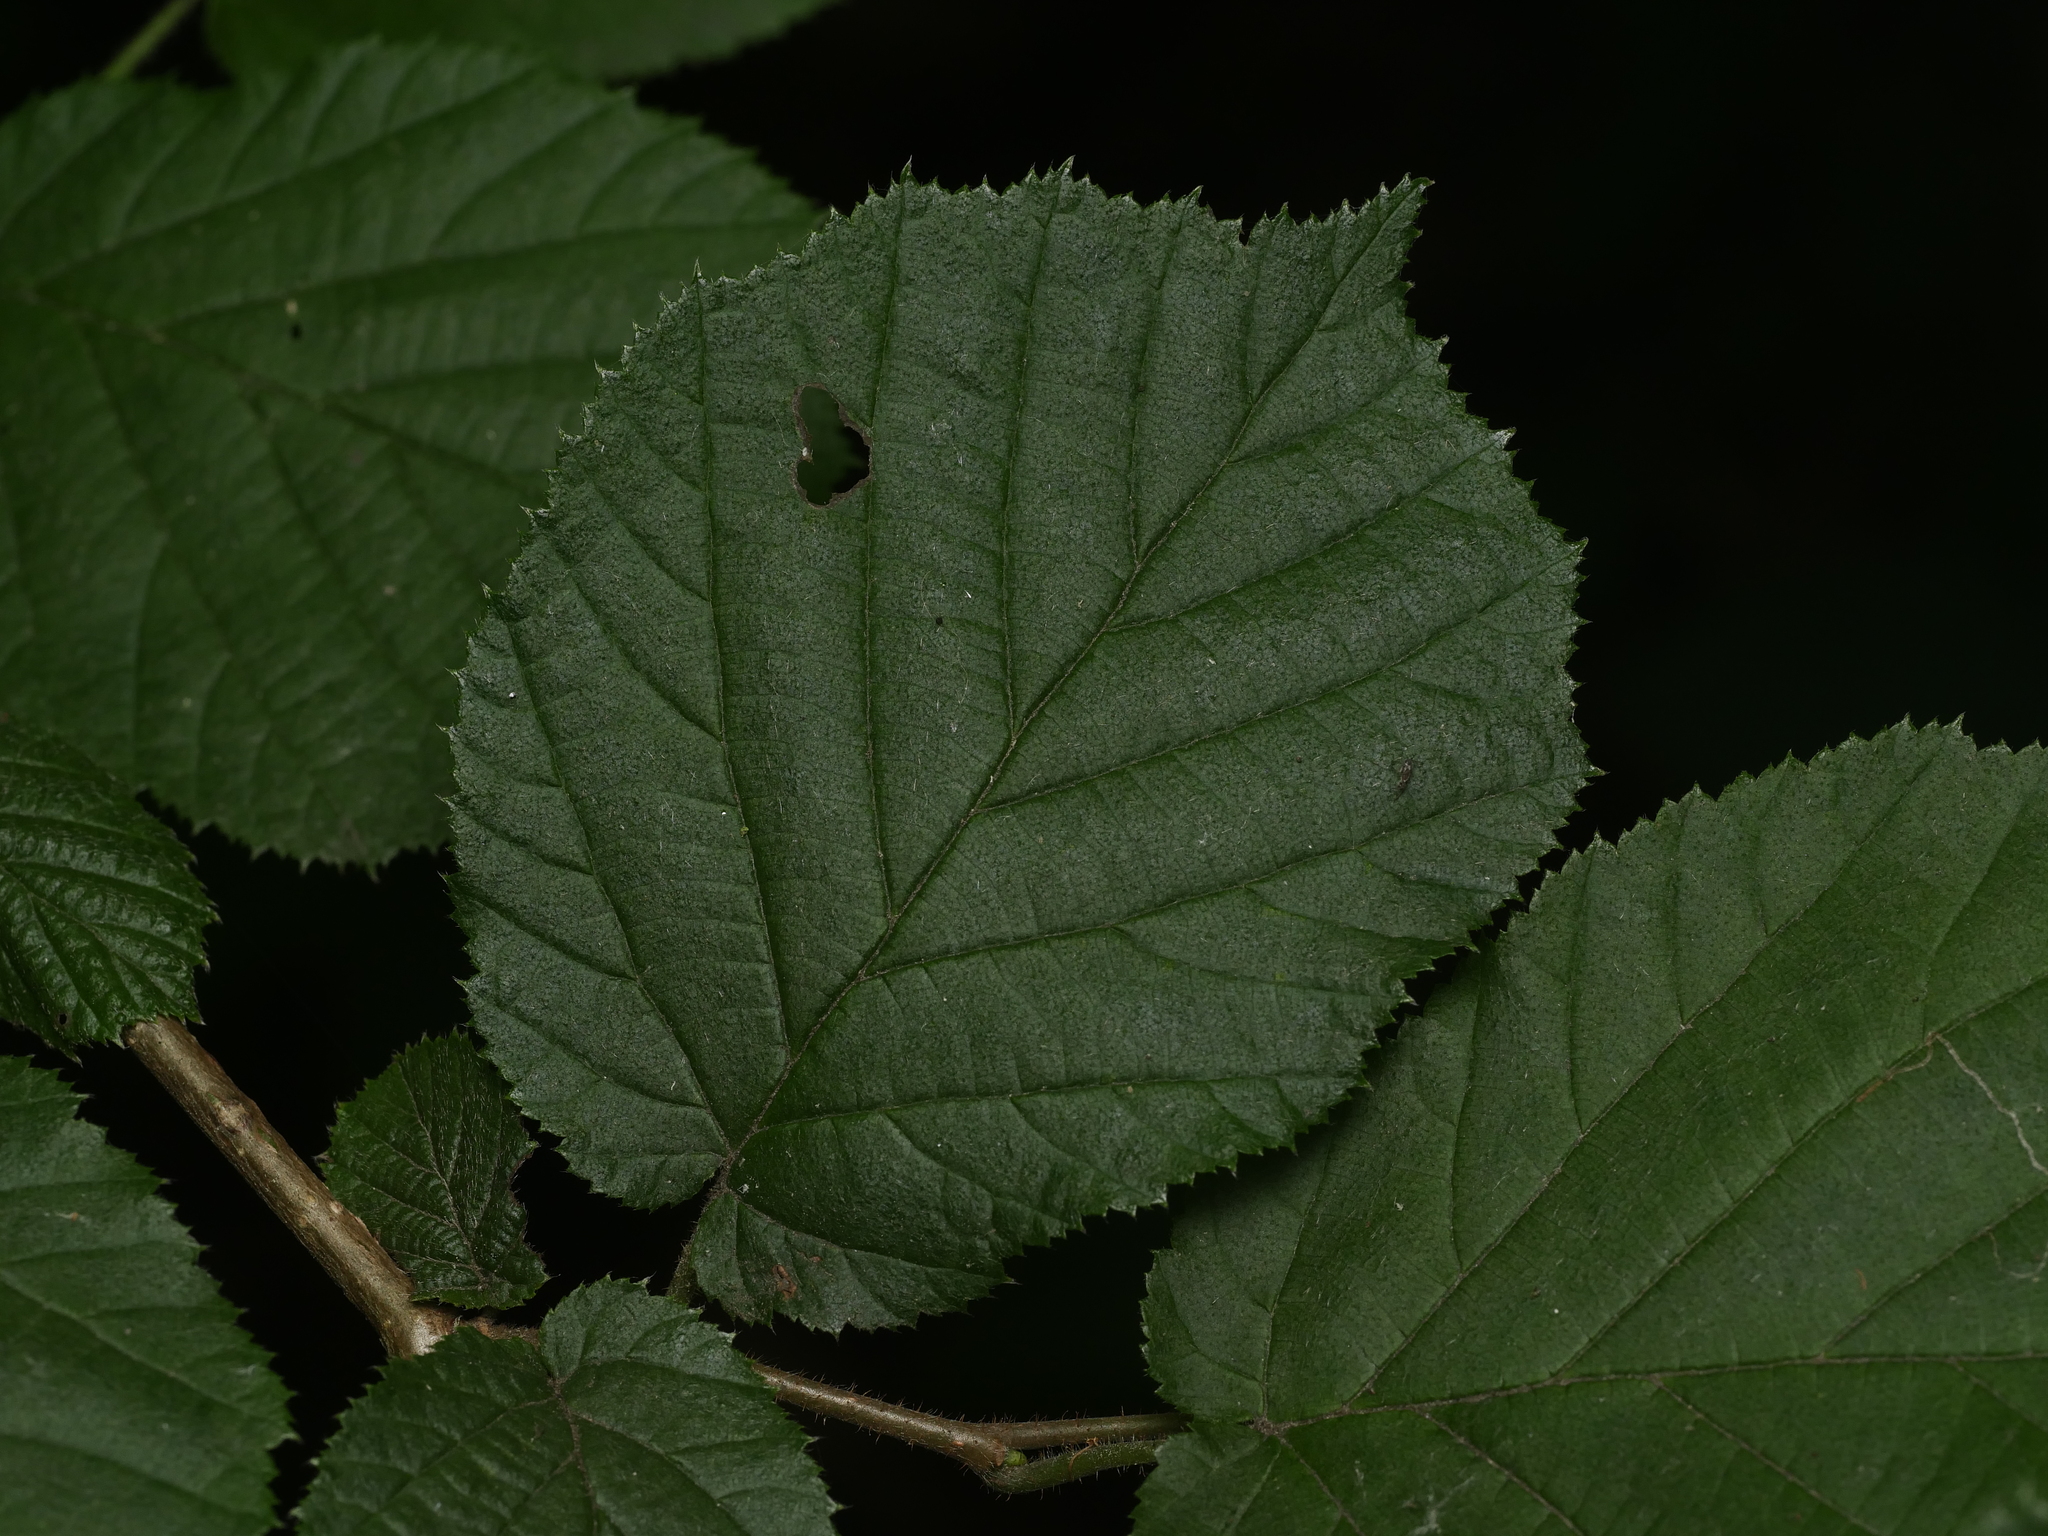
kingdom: Plantae
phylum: Tracheophyta
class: Magnoliopsida
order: Fagales
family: Betulaceae
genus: Corylus
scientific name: Corylus avellana
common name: European hazel
